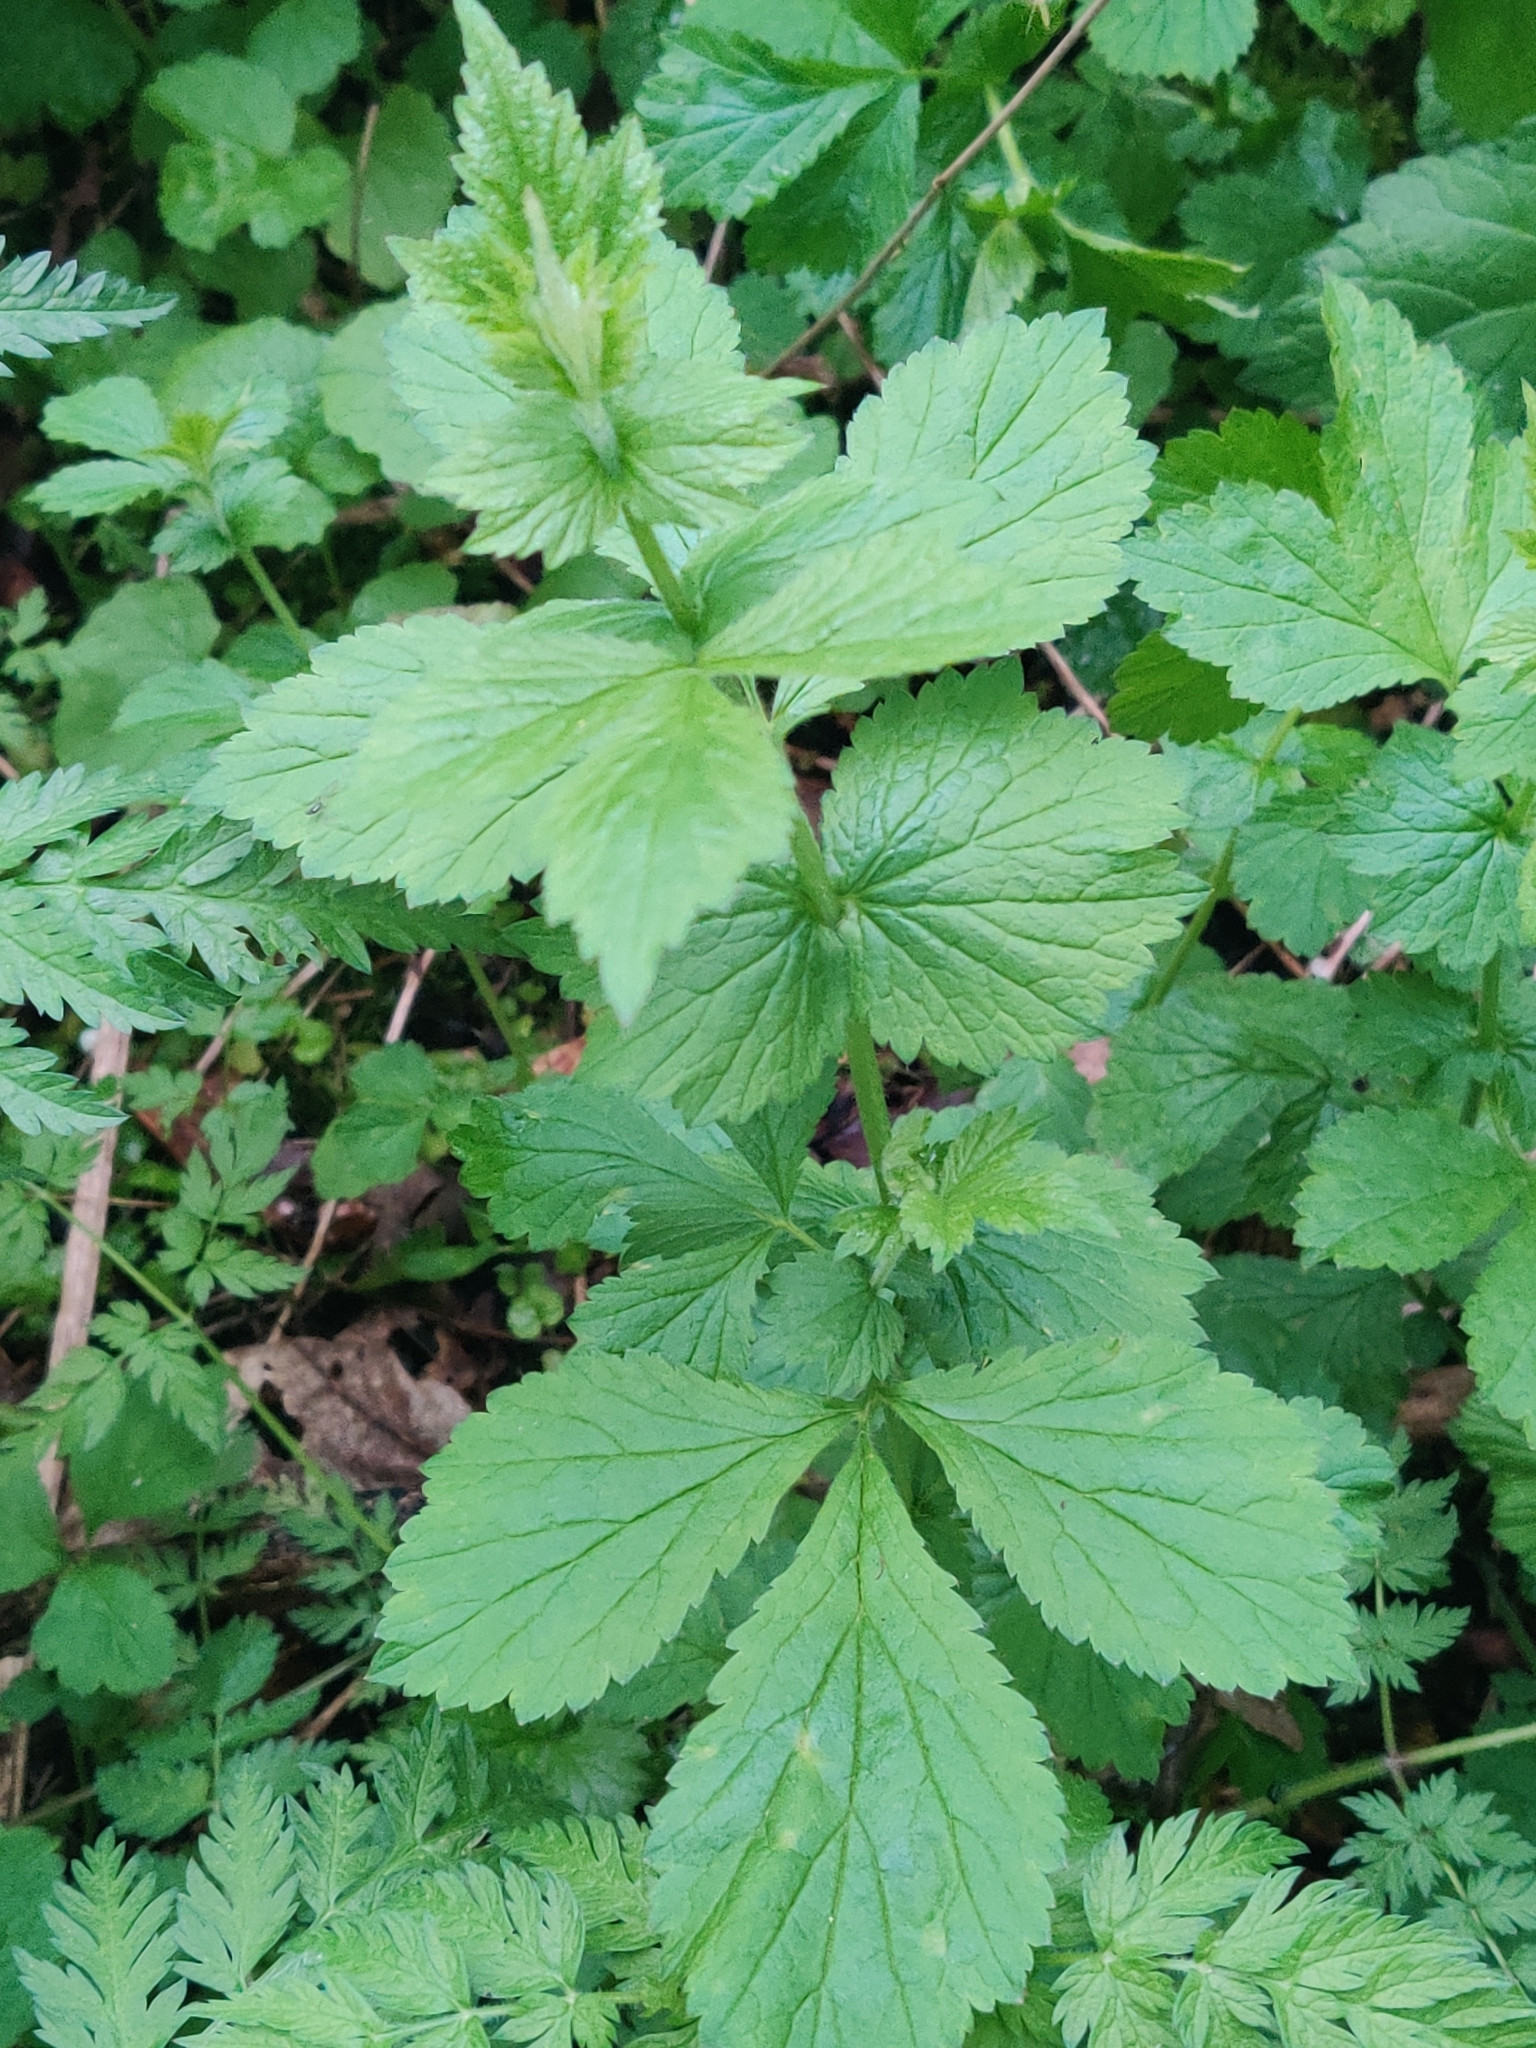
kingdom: Plantae
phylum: Tracheophyta
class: Magnoliopsida
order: Rosales
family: Rosaceae
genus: Geum
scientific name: Geum urbanum
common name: Wood avens
